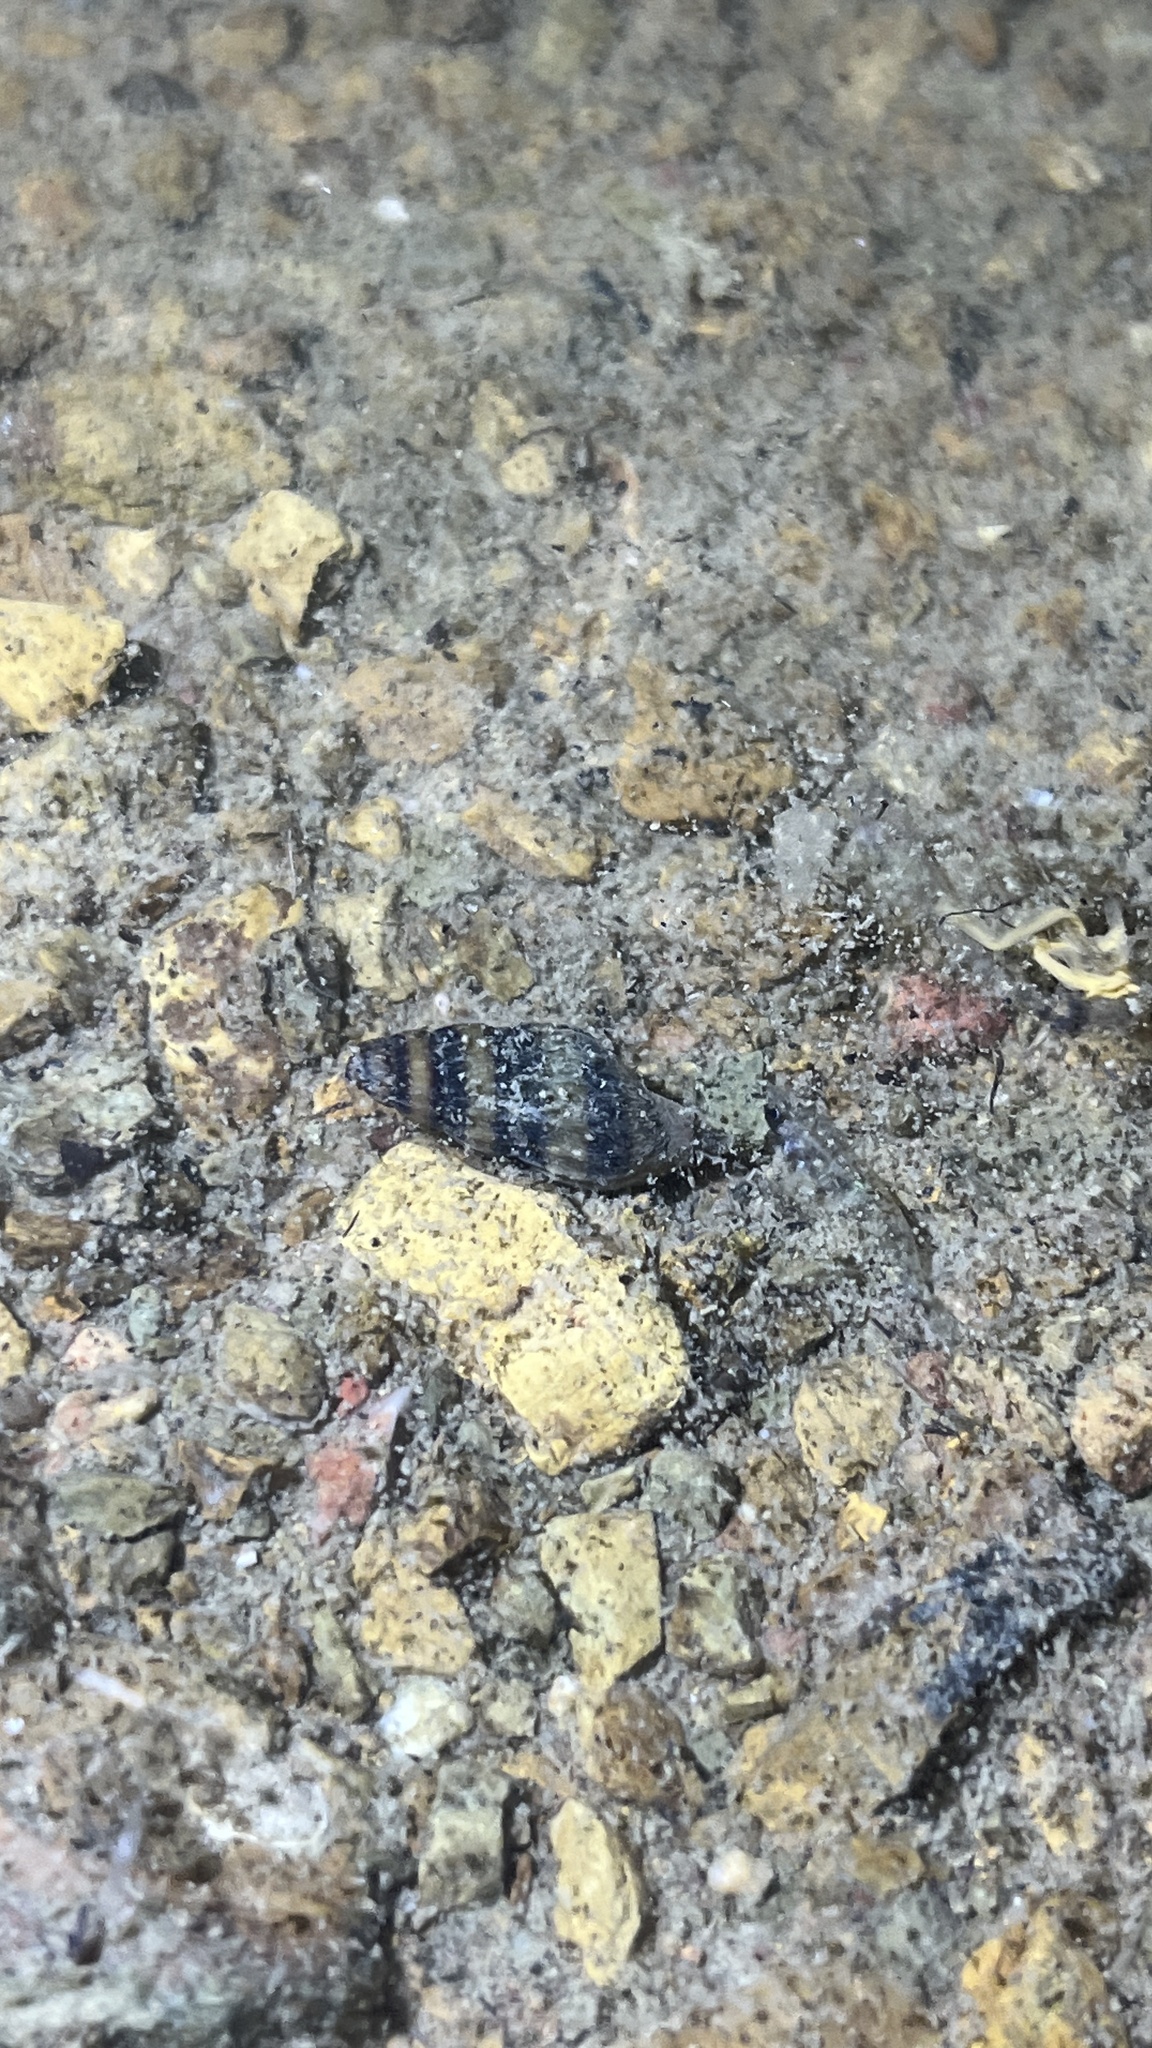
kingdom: Animalia
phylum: Mollusca
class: Gastropoda
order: Neogastropoda
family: Nassariidae
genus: Anentome
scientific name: Anentome helena
